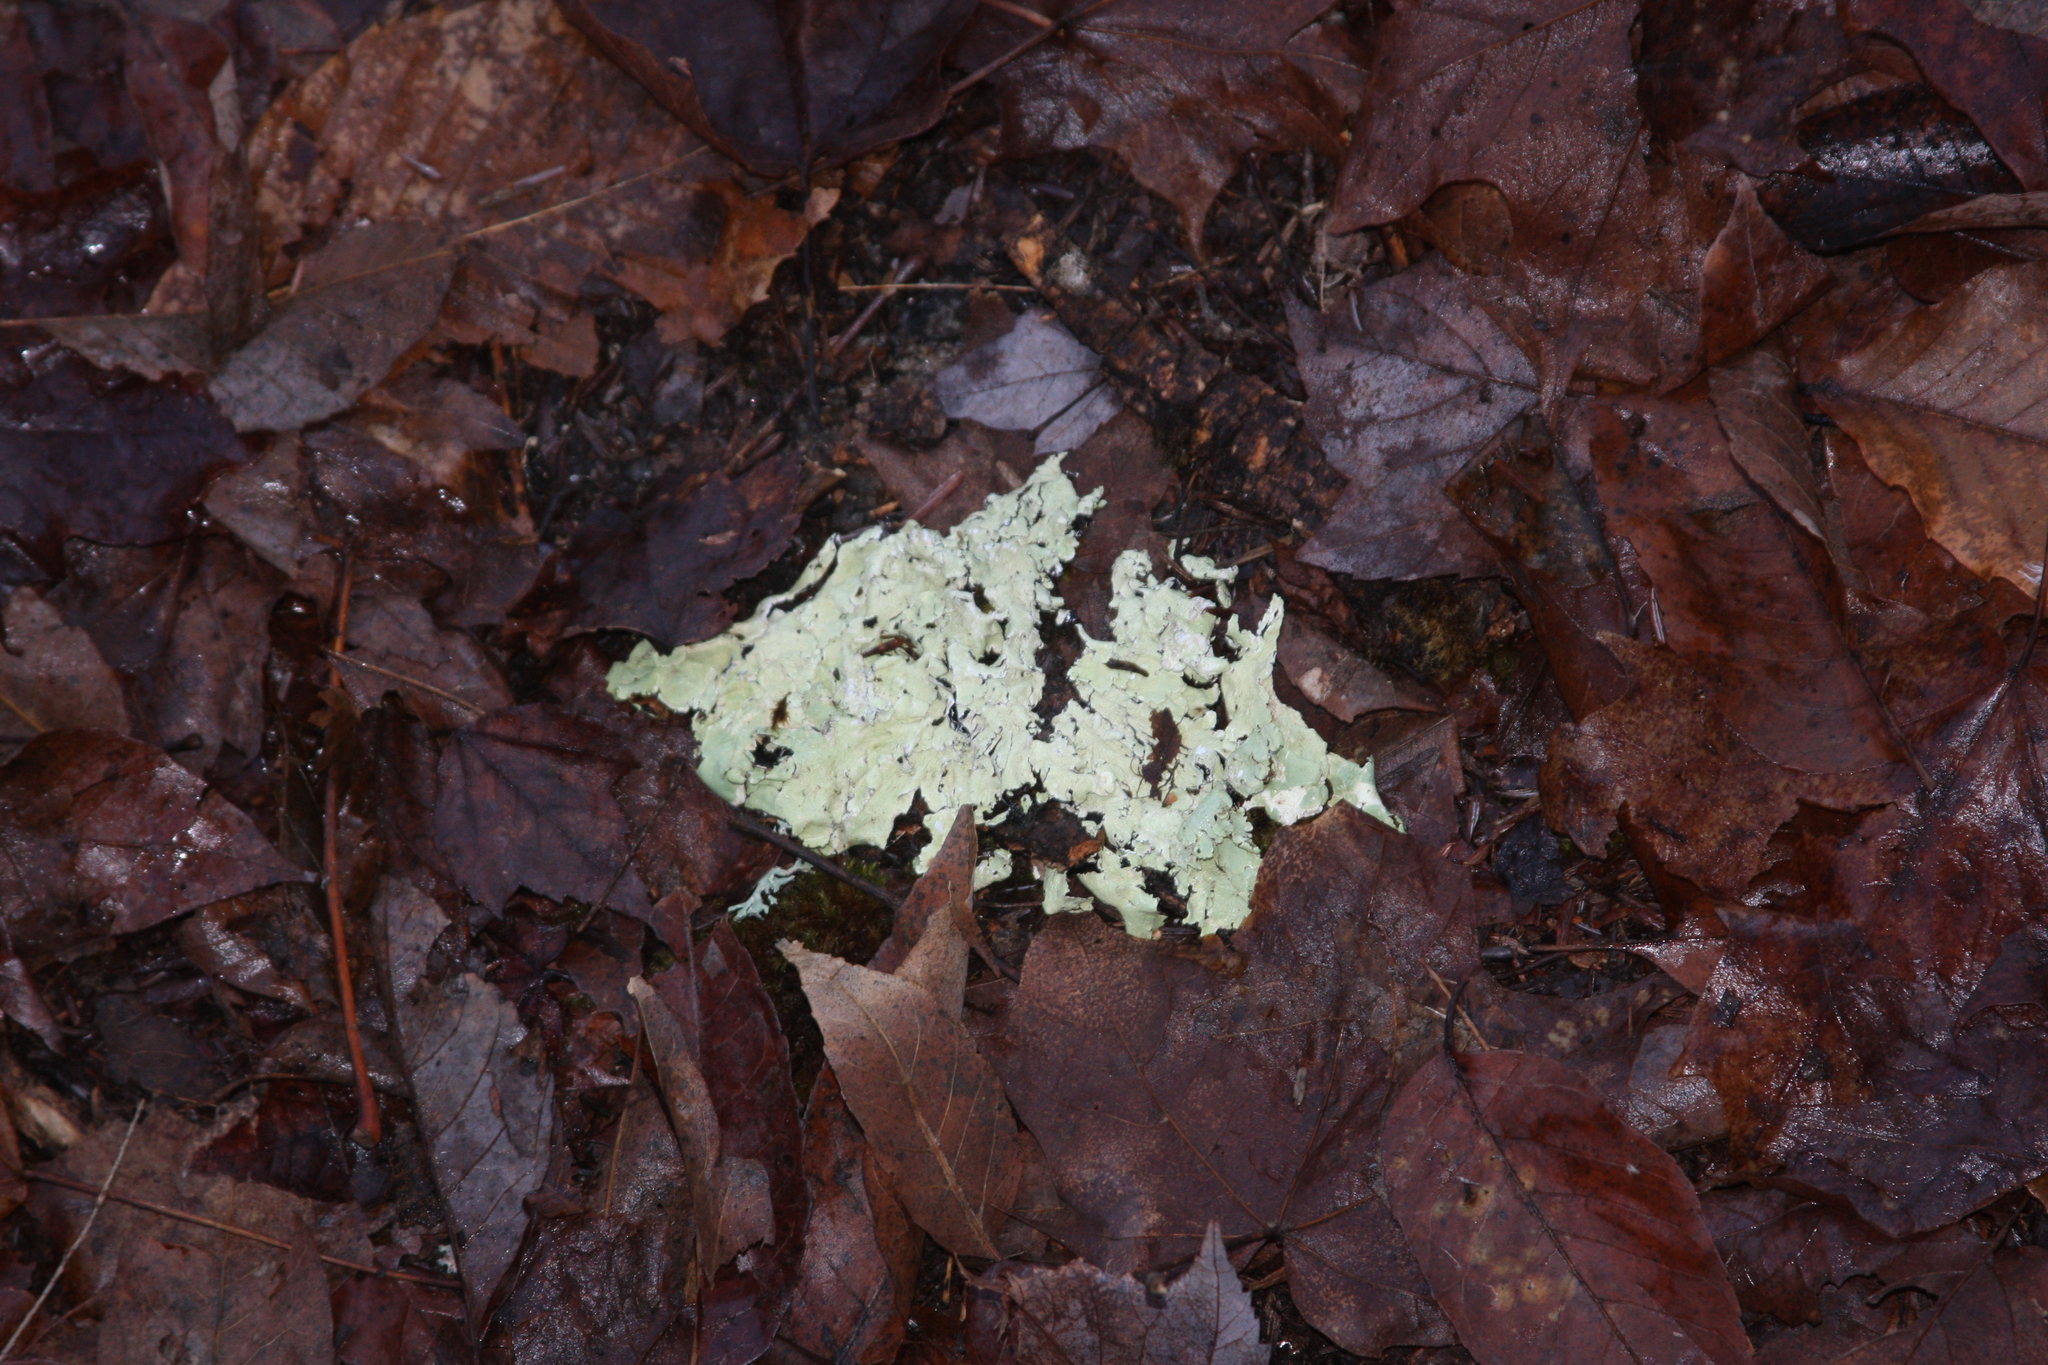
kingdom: Fungi
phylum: Ascomycota
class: Lecanoromycetes
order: Lecanorales
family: Parmeliaceae
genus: Flavoparmelia
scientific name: Flavoparmelia caperata
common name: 40-mile per hour lichen
